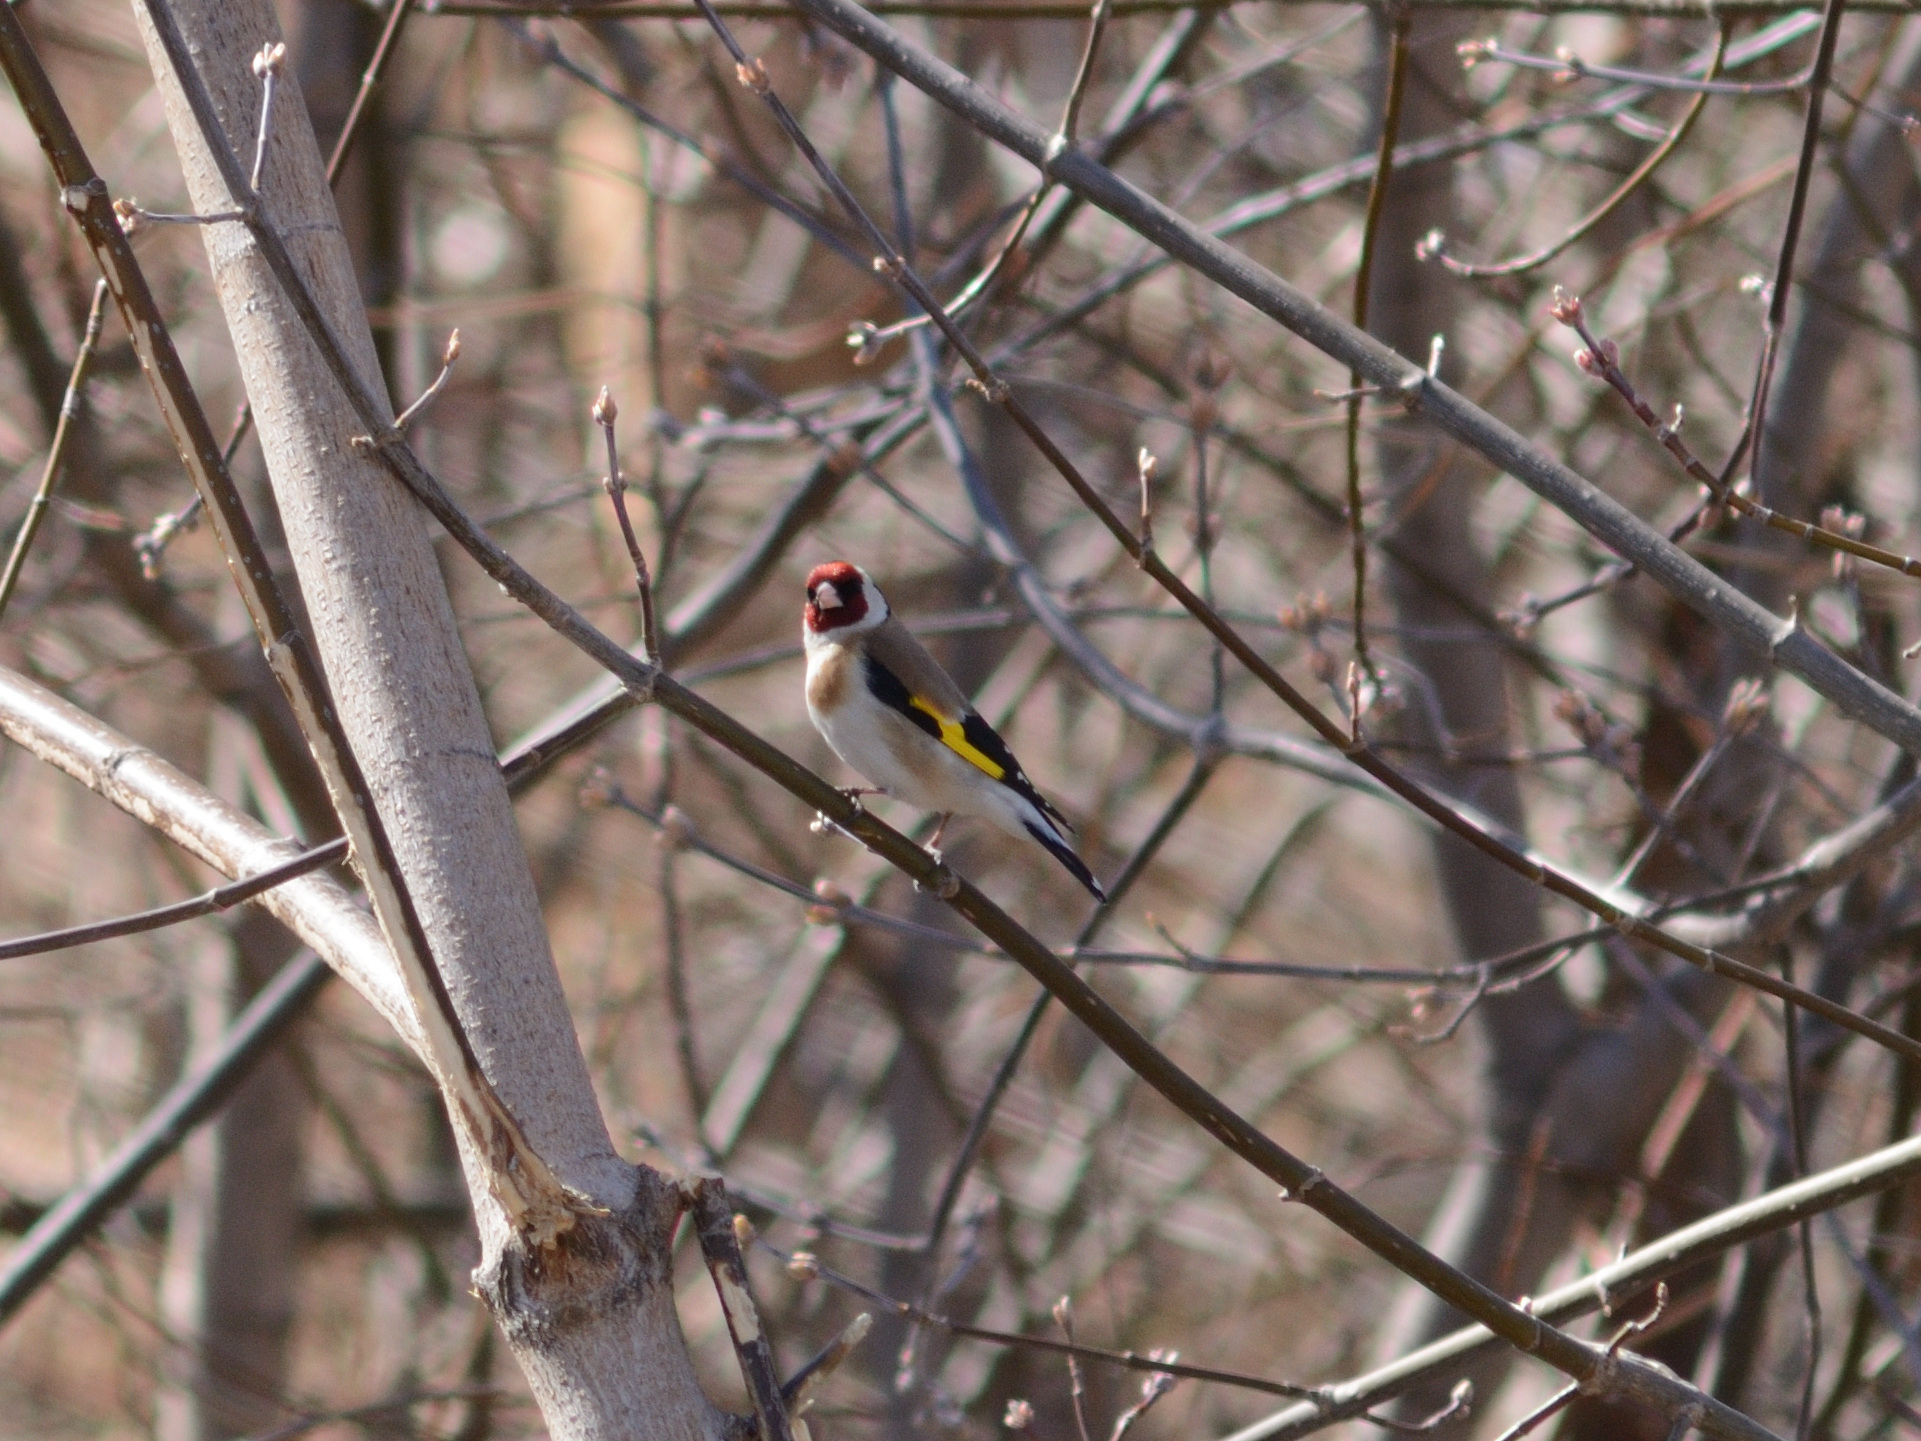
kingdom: Animalia
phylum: Chordata
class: Aves
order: Passeriformes
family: Fringillidae
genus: Carduelis
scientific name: Carduelis carduelis
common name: European goldfinch
